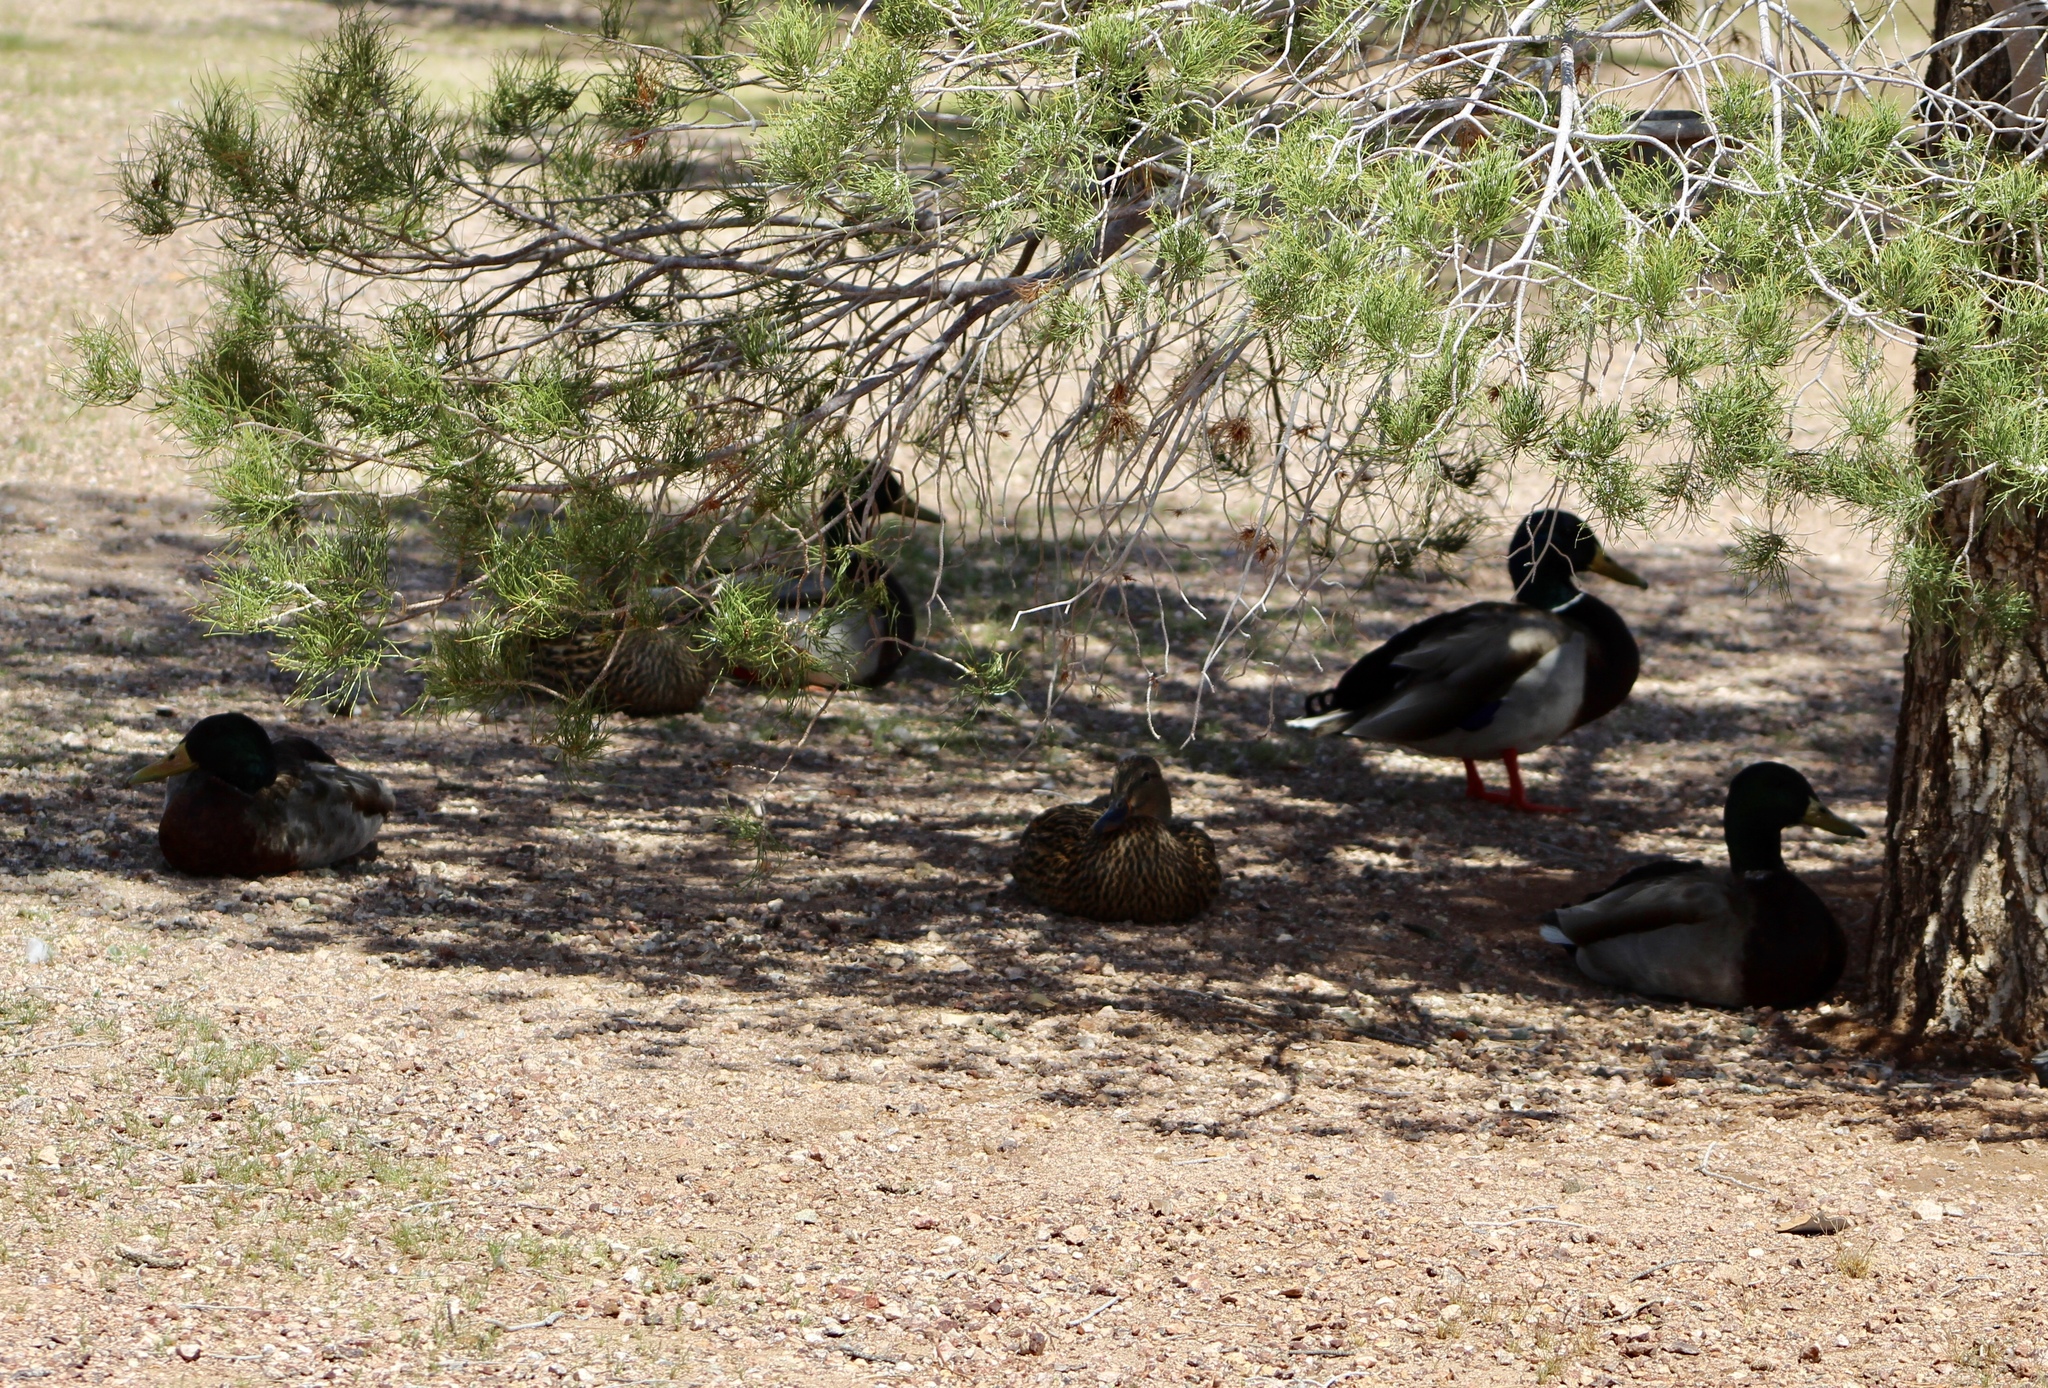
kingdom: Animalia
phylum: Chordata
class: Aves
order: Anseriformes
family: Anatidae
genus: Anas
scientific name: Anas platyrhynchos
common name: Mallard
